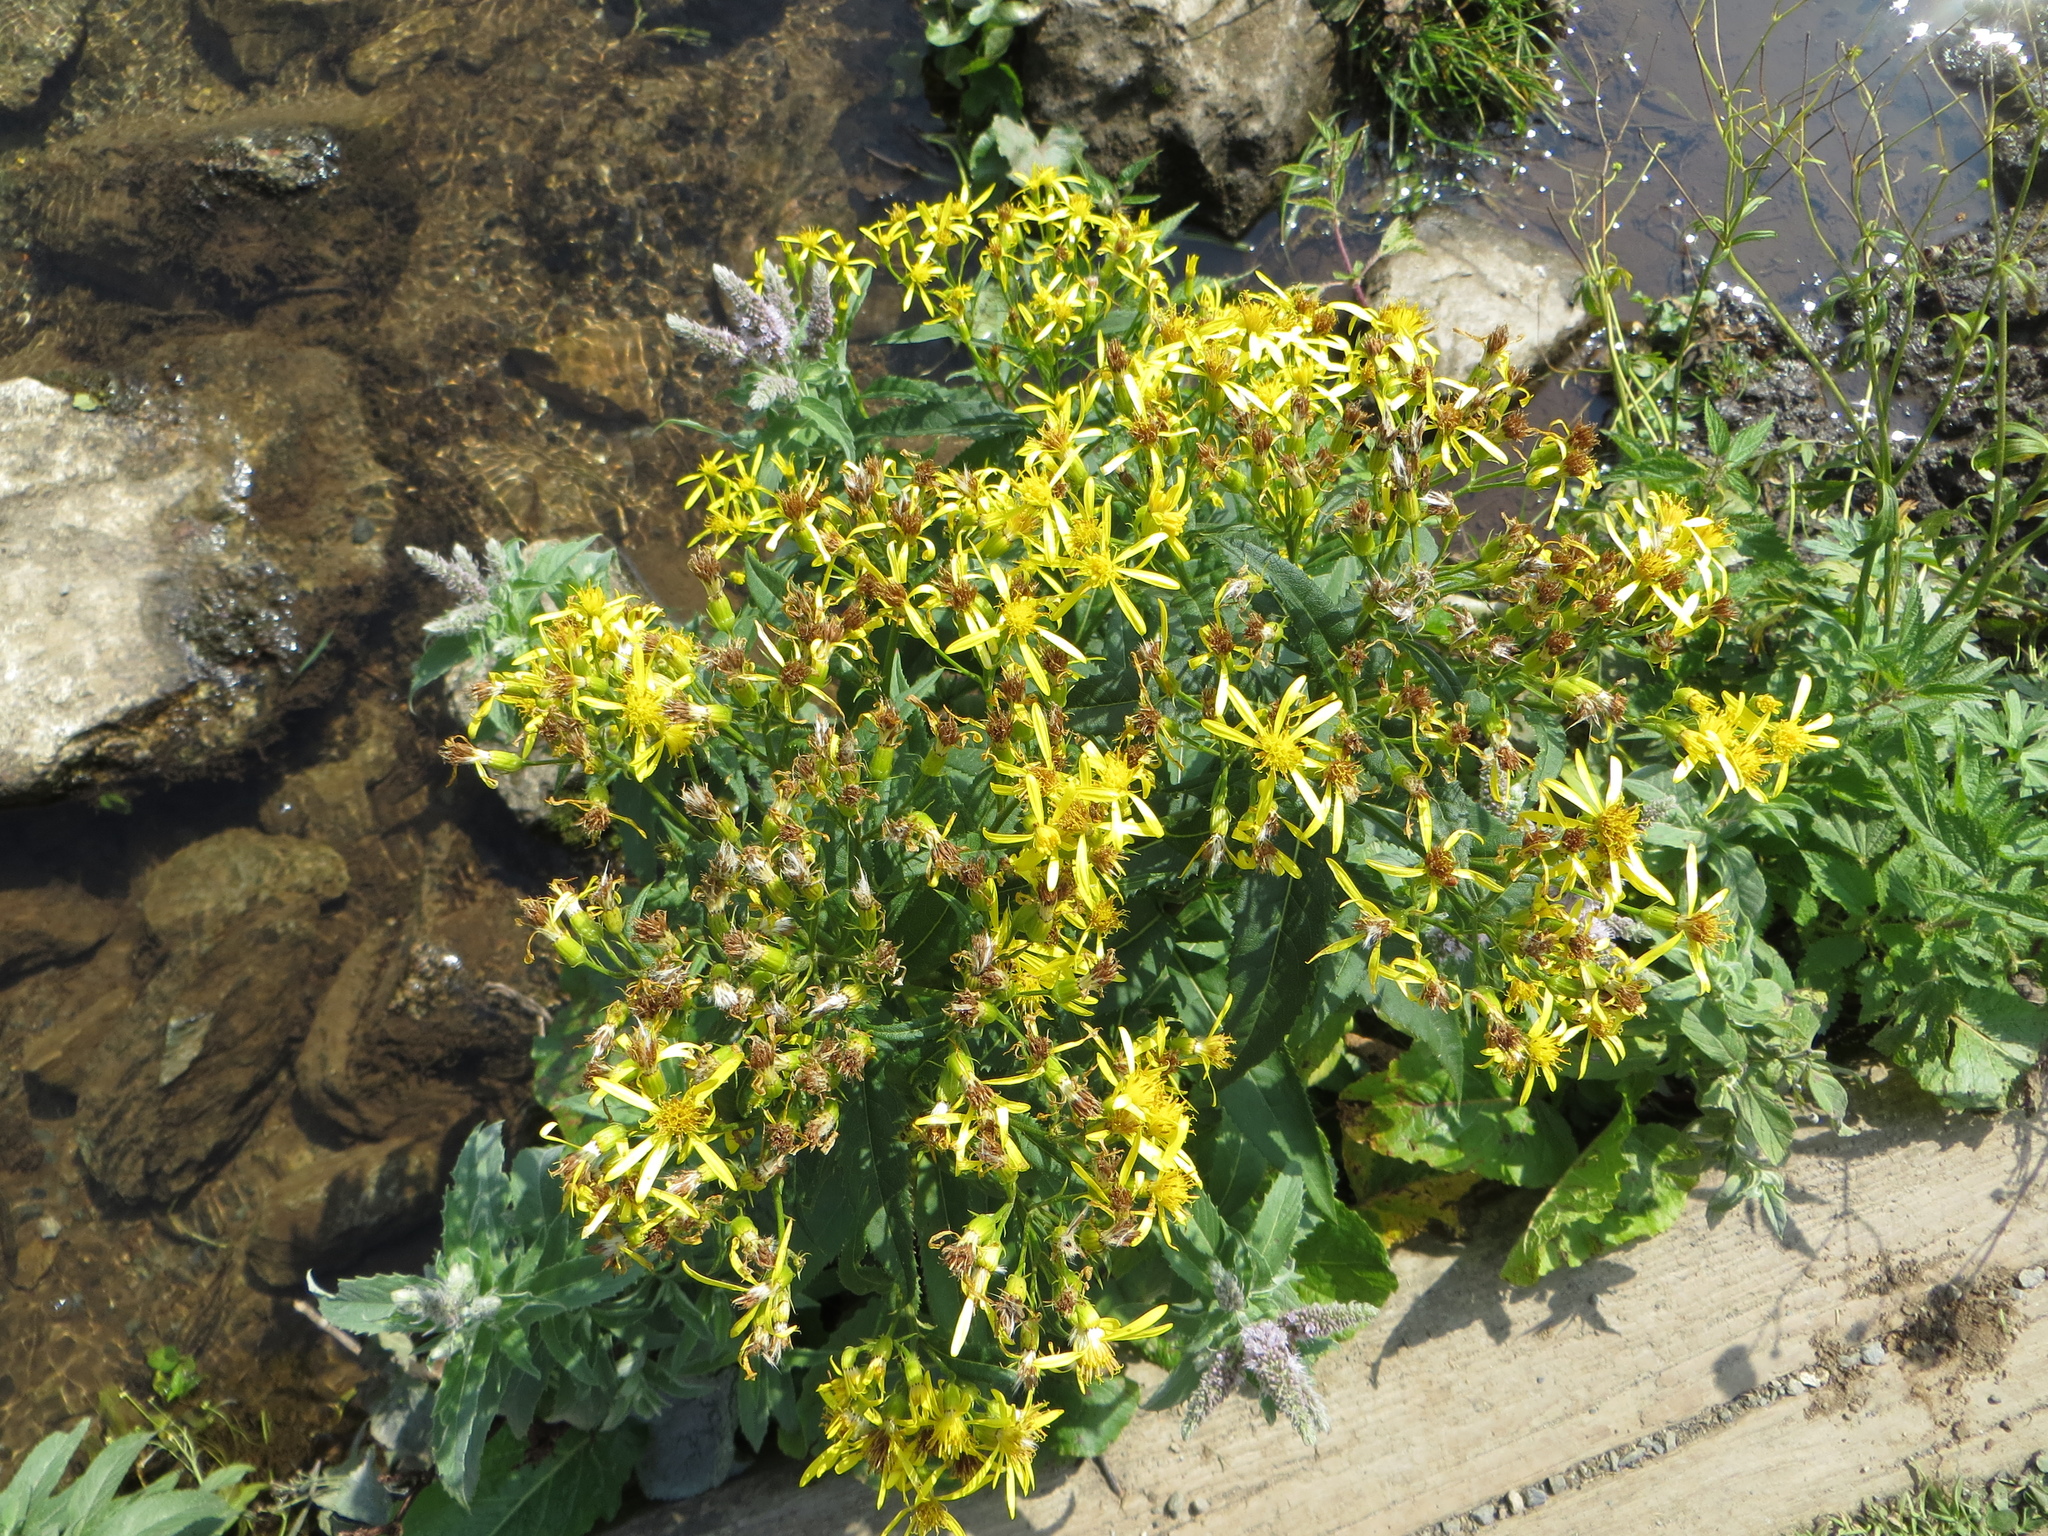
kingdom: Plantae
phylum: Tracheophyta
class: Magnoliopsida
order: Asterales
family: Asteraceae
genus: Senecio
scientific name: Senecio ovatus
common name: Wood ragwort
